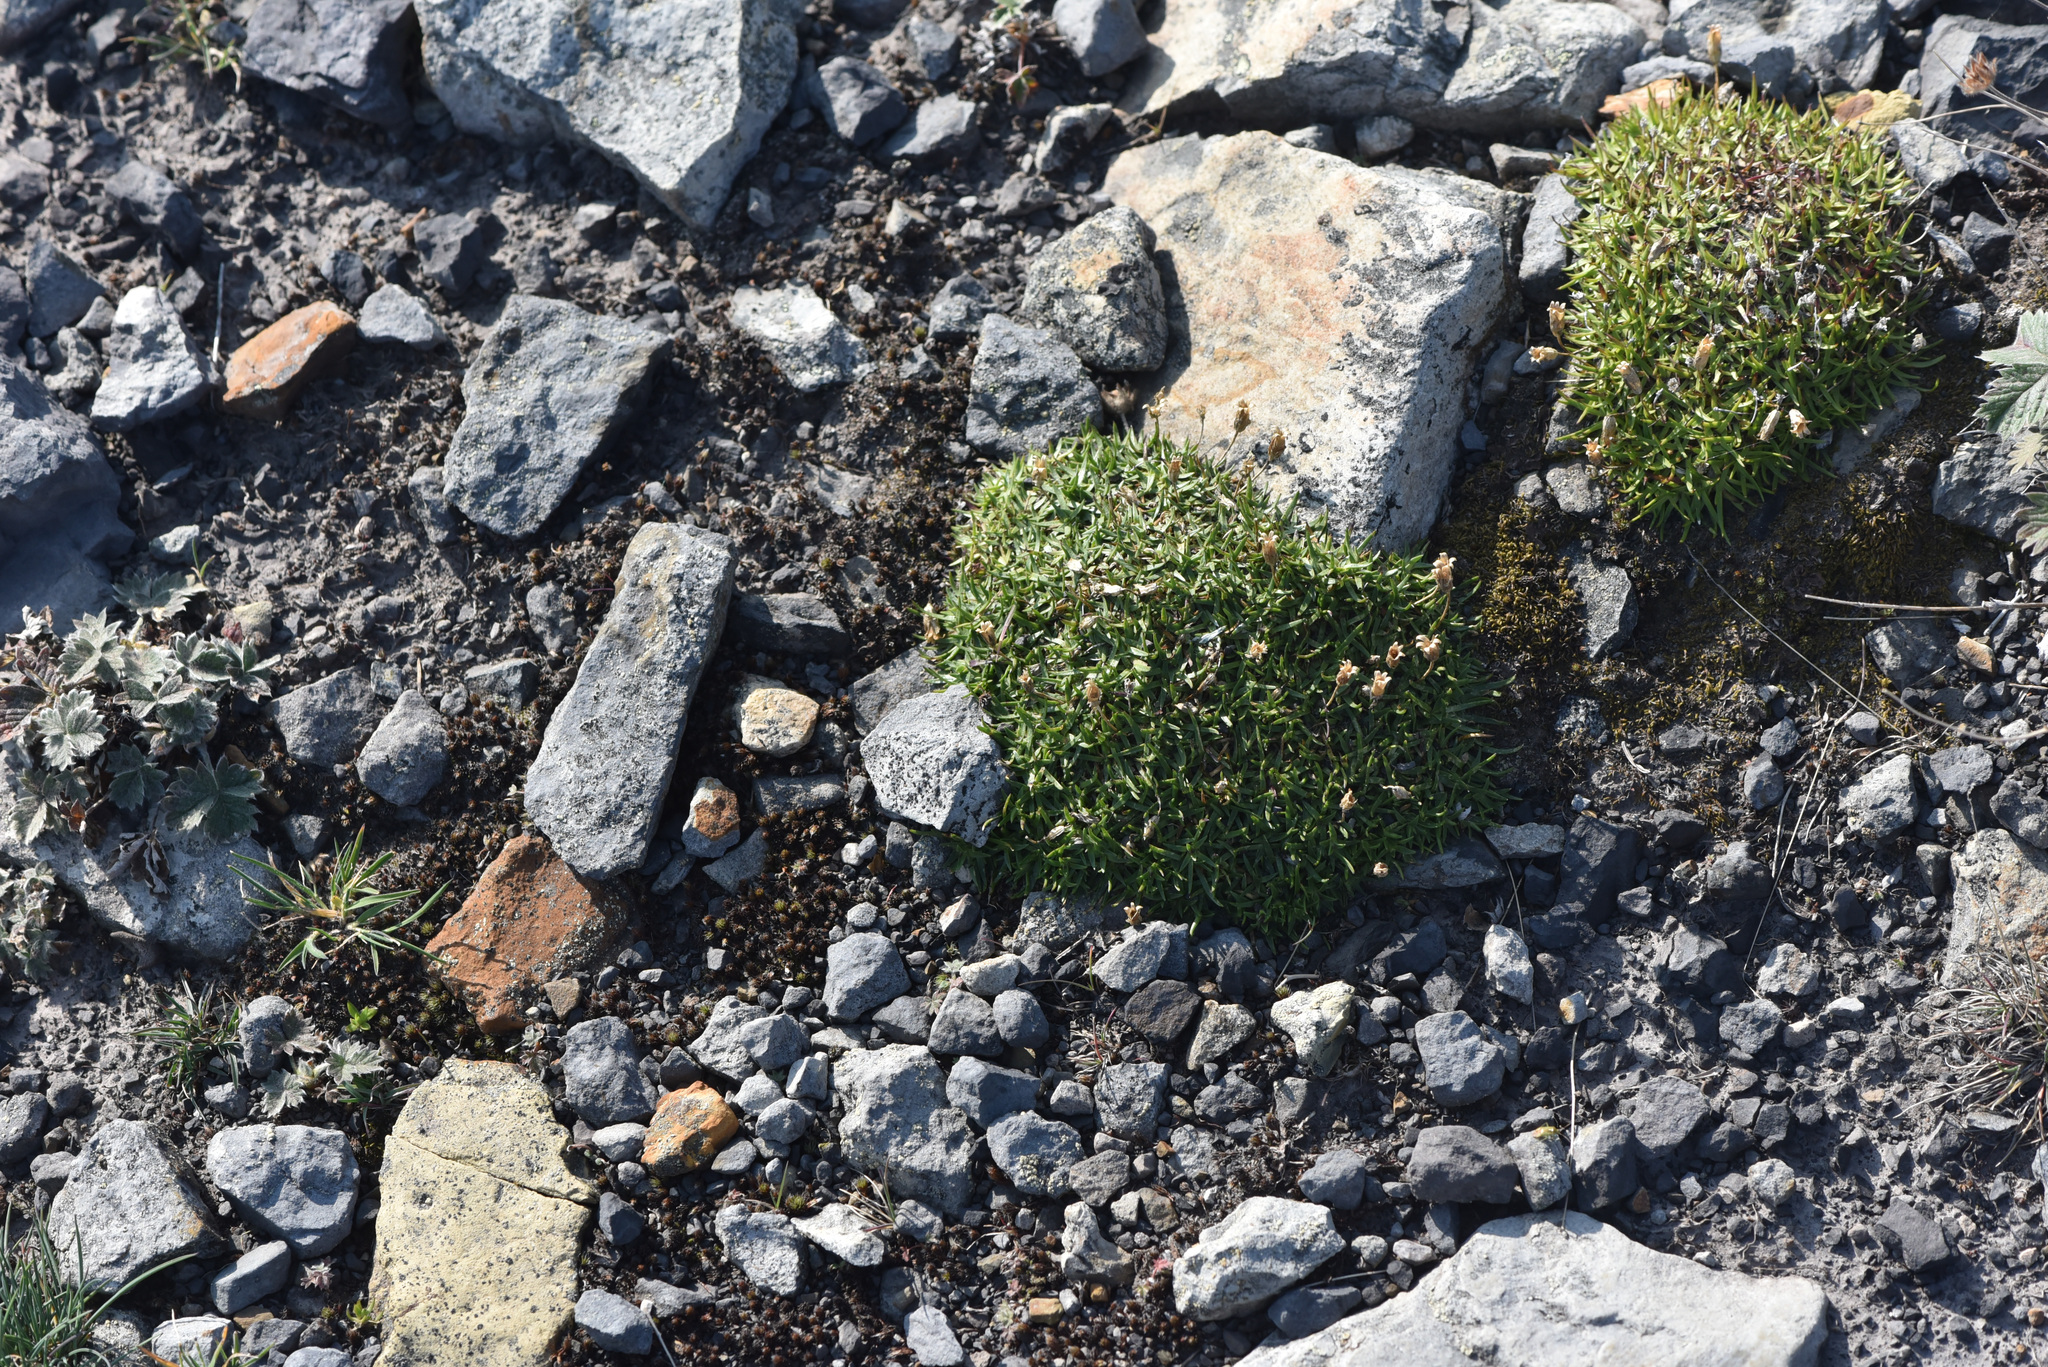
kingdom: Plantae
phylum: Tracheophyta
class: Magnoliopsida
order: Caryophyllales
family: Caryophyllaceae
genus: Silene
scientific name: Silene acaulis
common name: Moss campion
